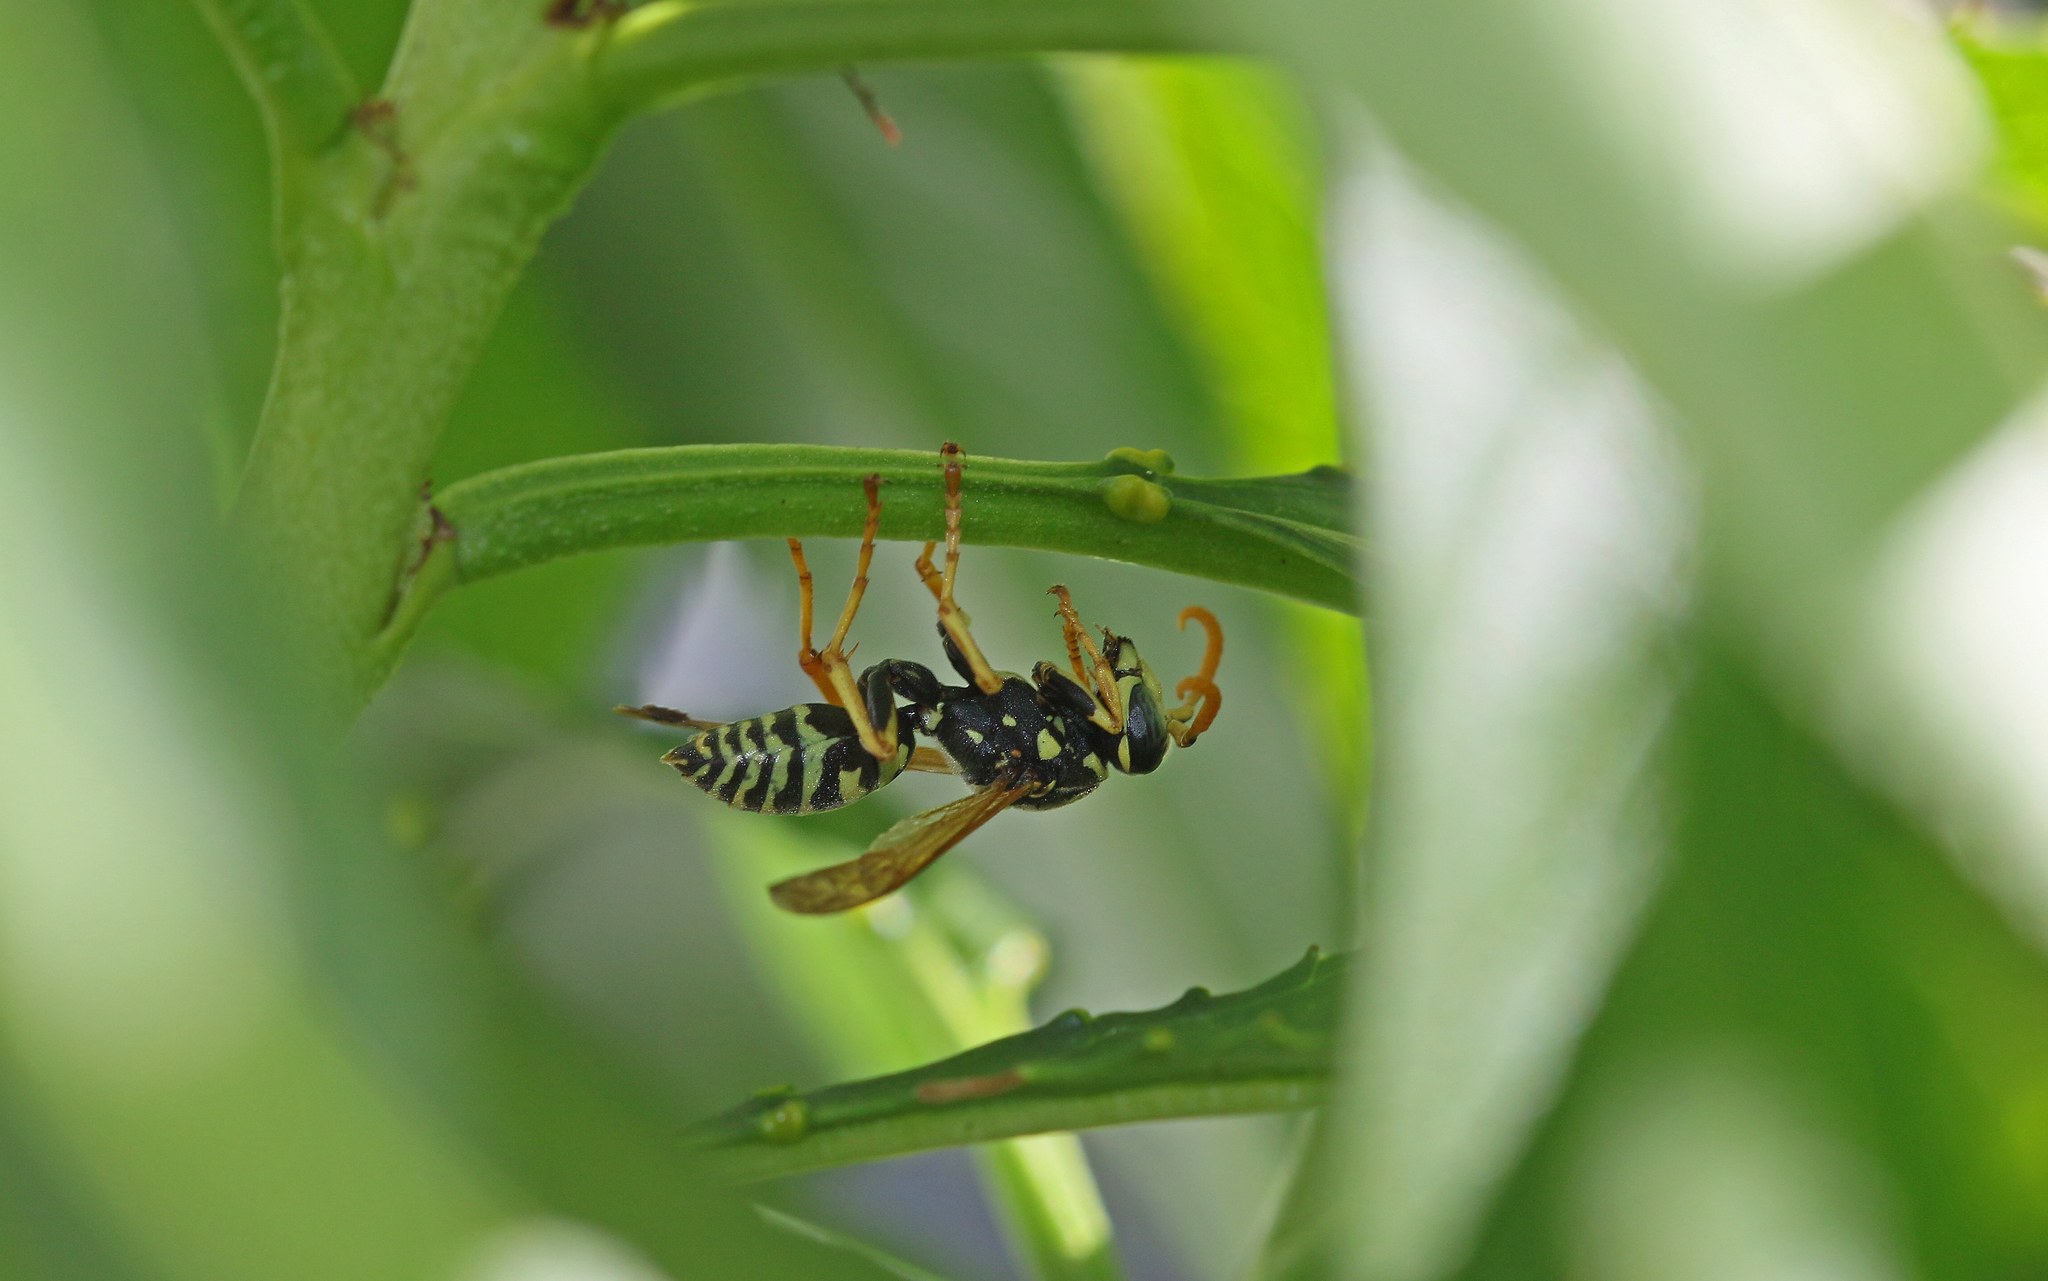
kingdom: Animalia
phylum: Arthropoda
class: Insecta
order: Hymenoptera
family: Eumenidae
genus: Polistes
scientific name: Polistes dominula
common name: Paper wasp
